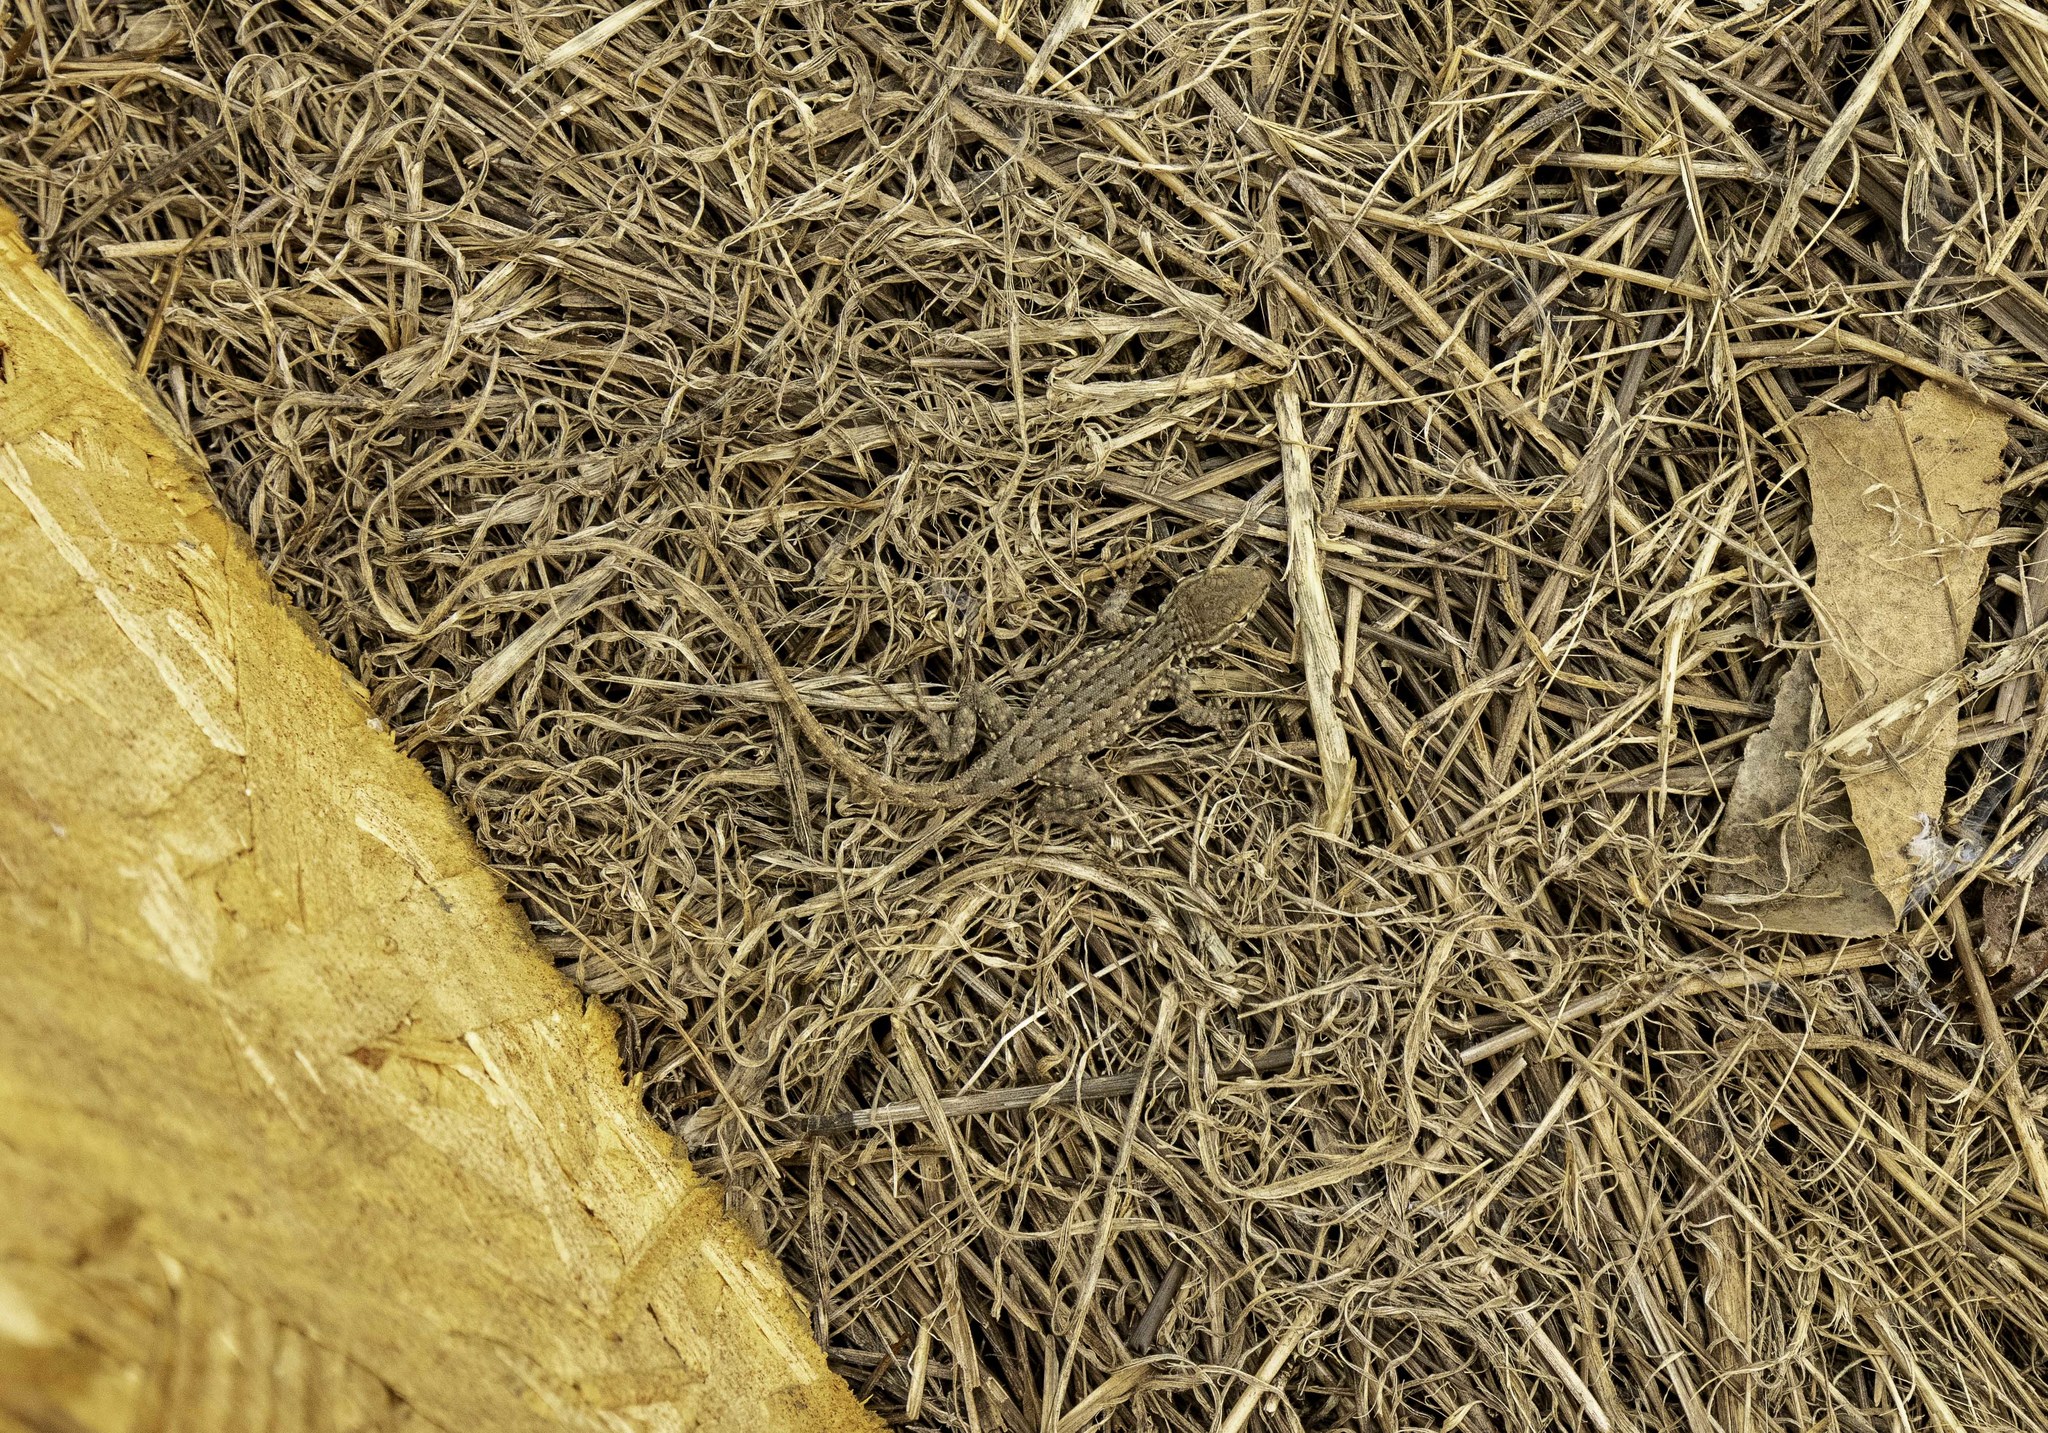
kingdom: Animalia
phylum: Chordata
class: Squamata
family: Phrynosomatidae
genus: Uta
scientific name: Uta stansburiana
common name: Side-blotched lizard
